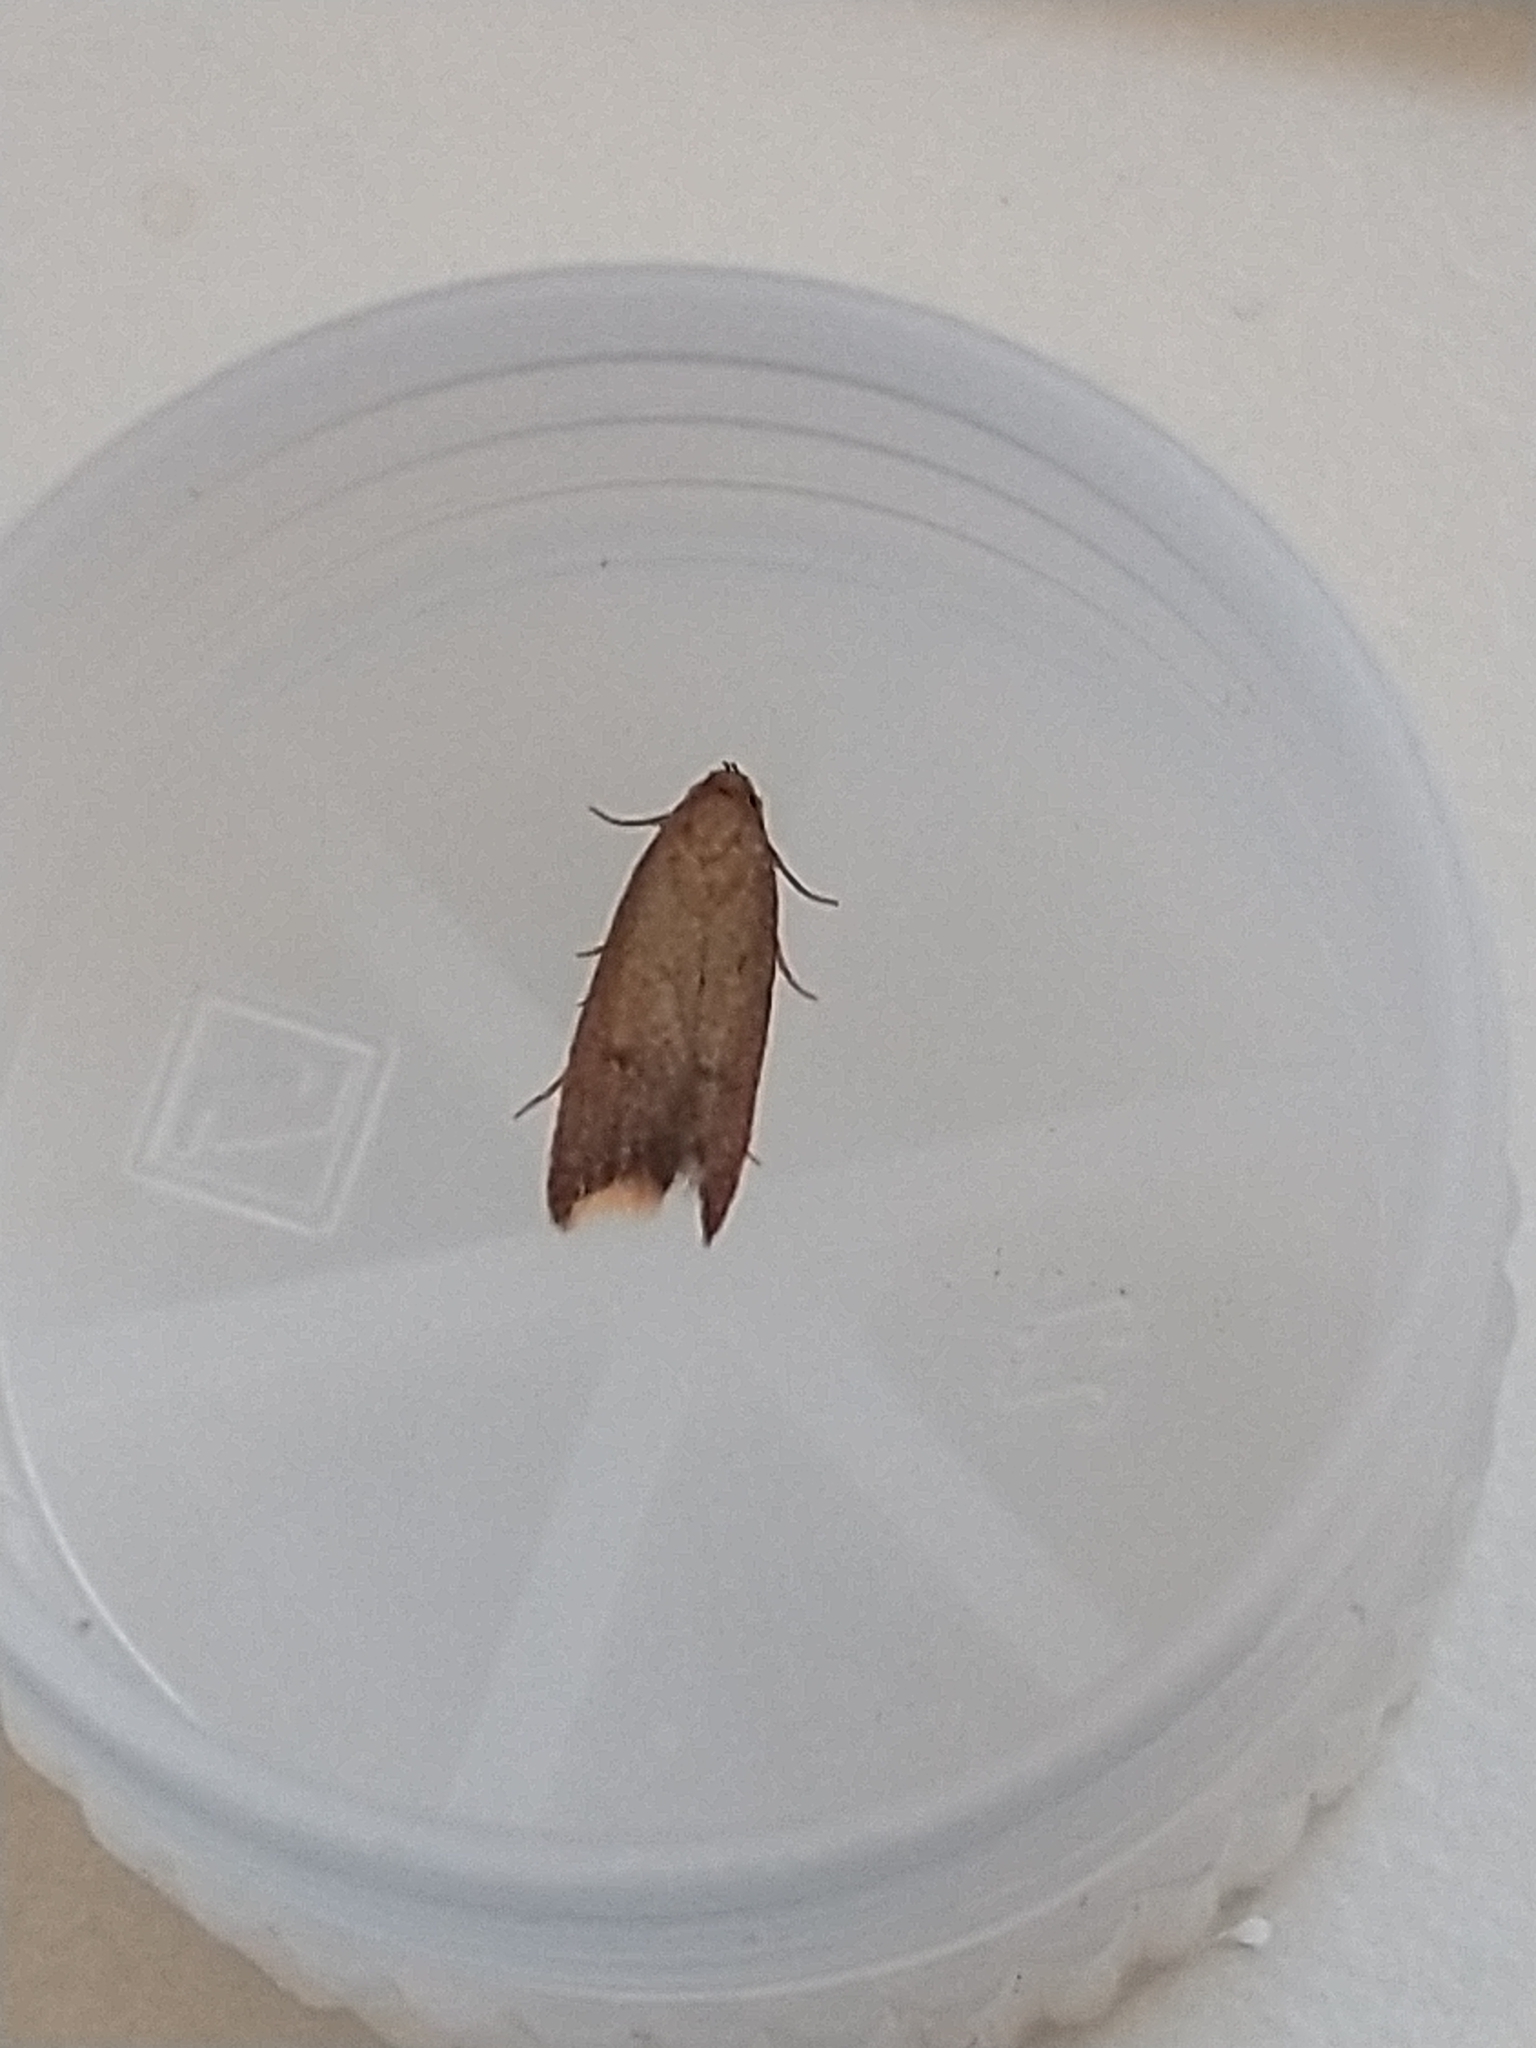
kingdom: Animalia
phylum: Arthropoda
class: Insecta
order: Lepidoptera
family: Oecophoridae
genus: Tachystola
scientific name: Tachystola acroxantha
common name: Ruddy streak
